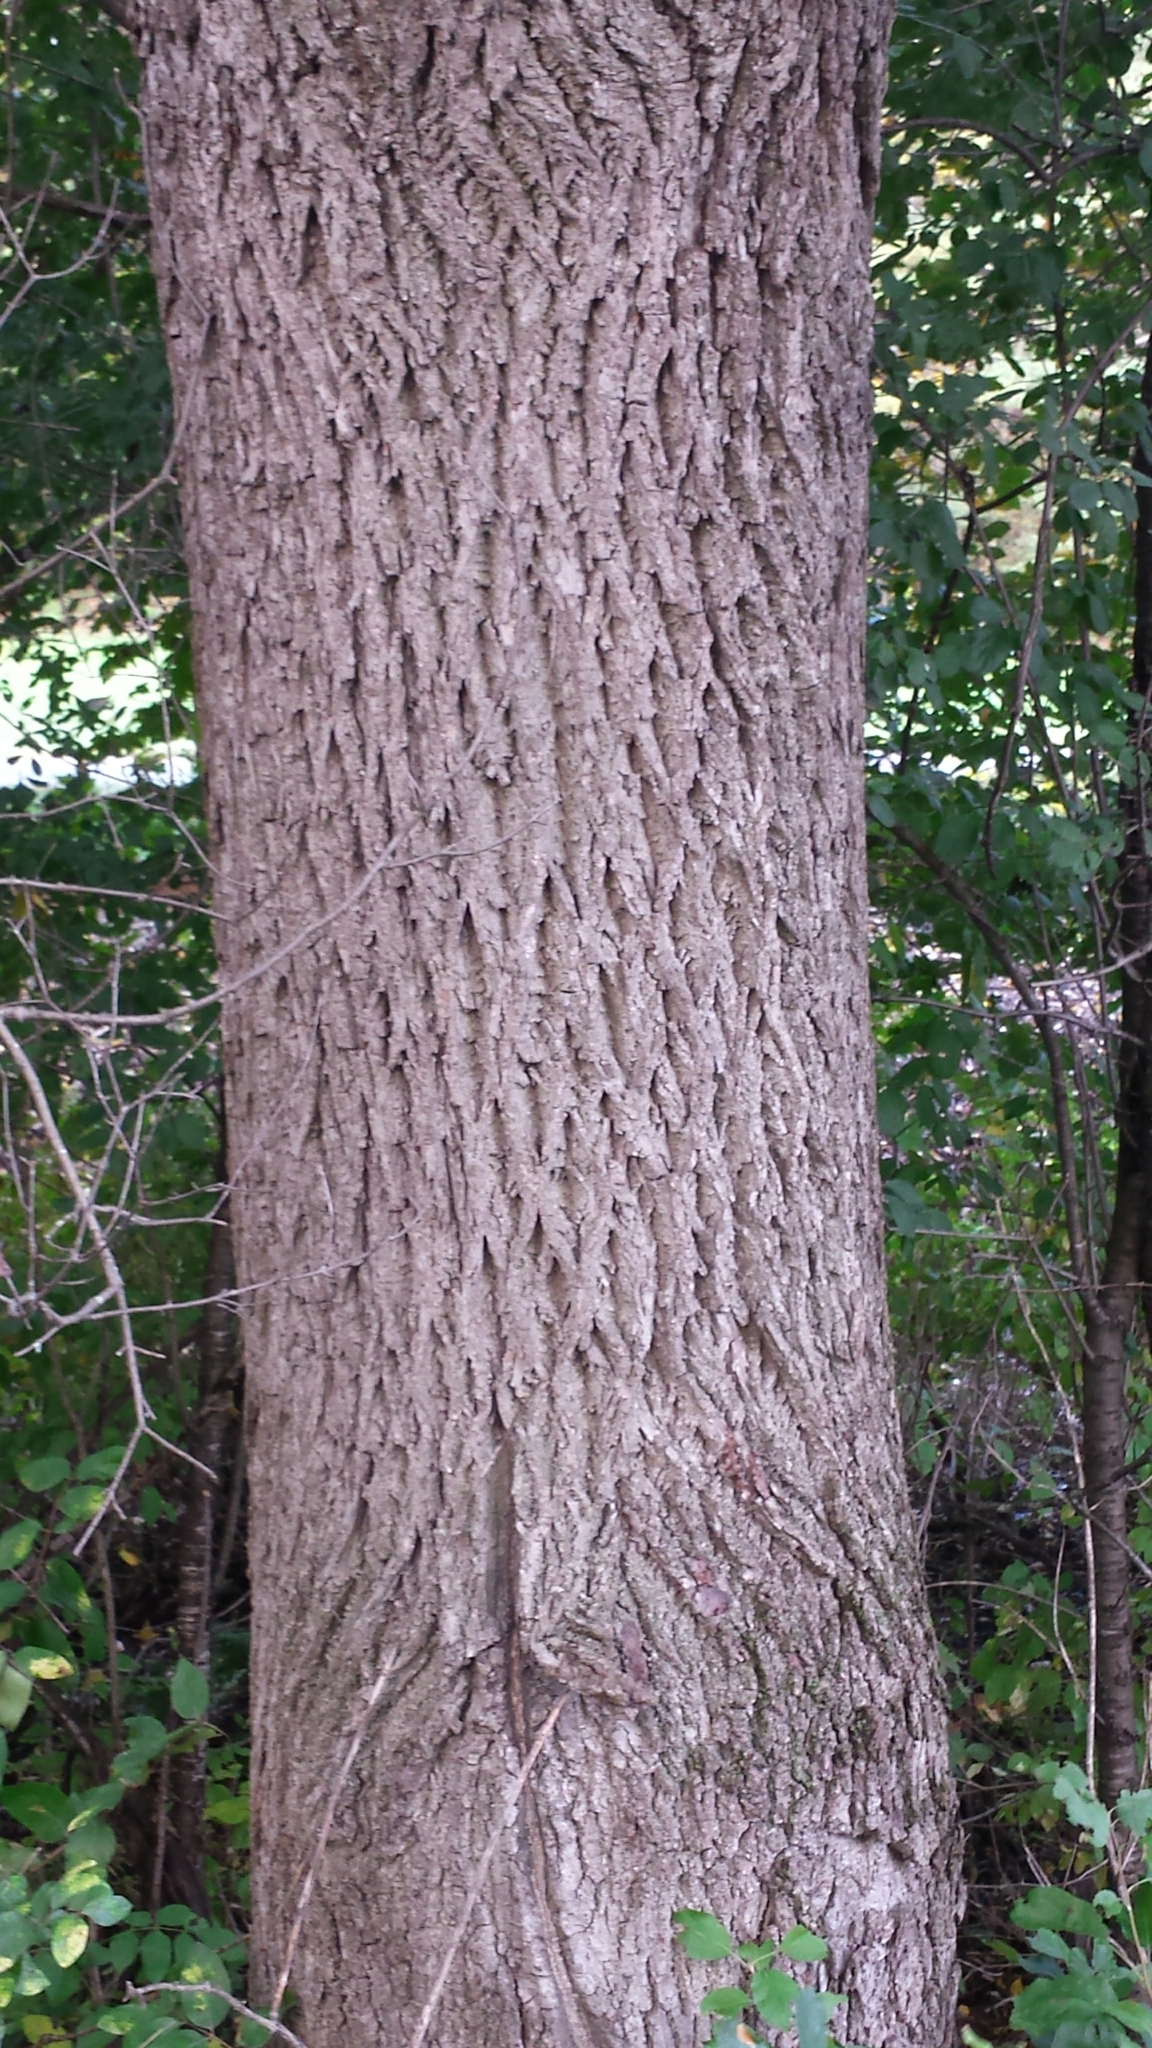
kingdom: Plantae
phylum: Tracheophyta
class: Magnoliopsida
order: Fagales
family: Juglandaceae
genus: Juglans
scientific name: Juglans nigra
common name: Black walnut
